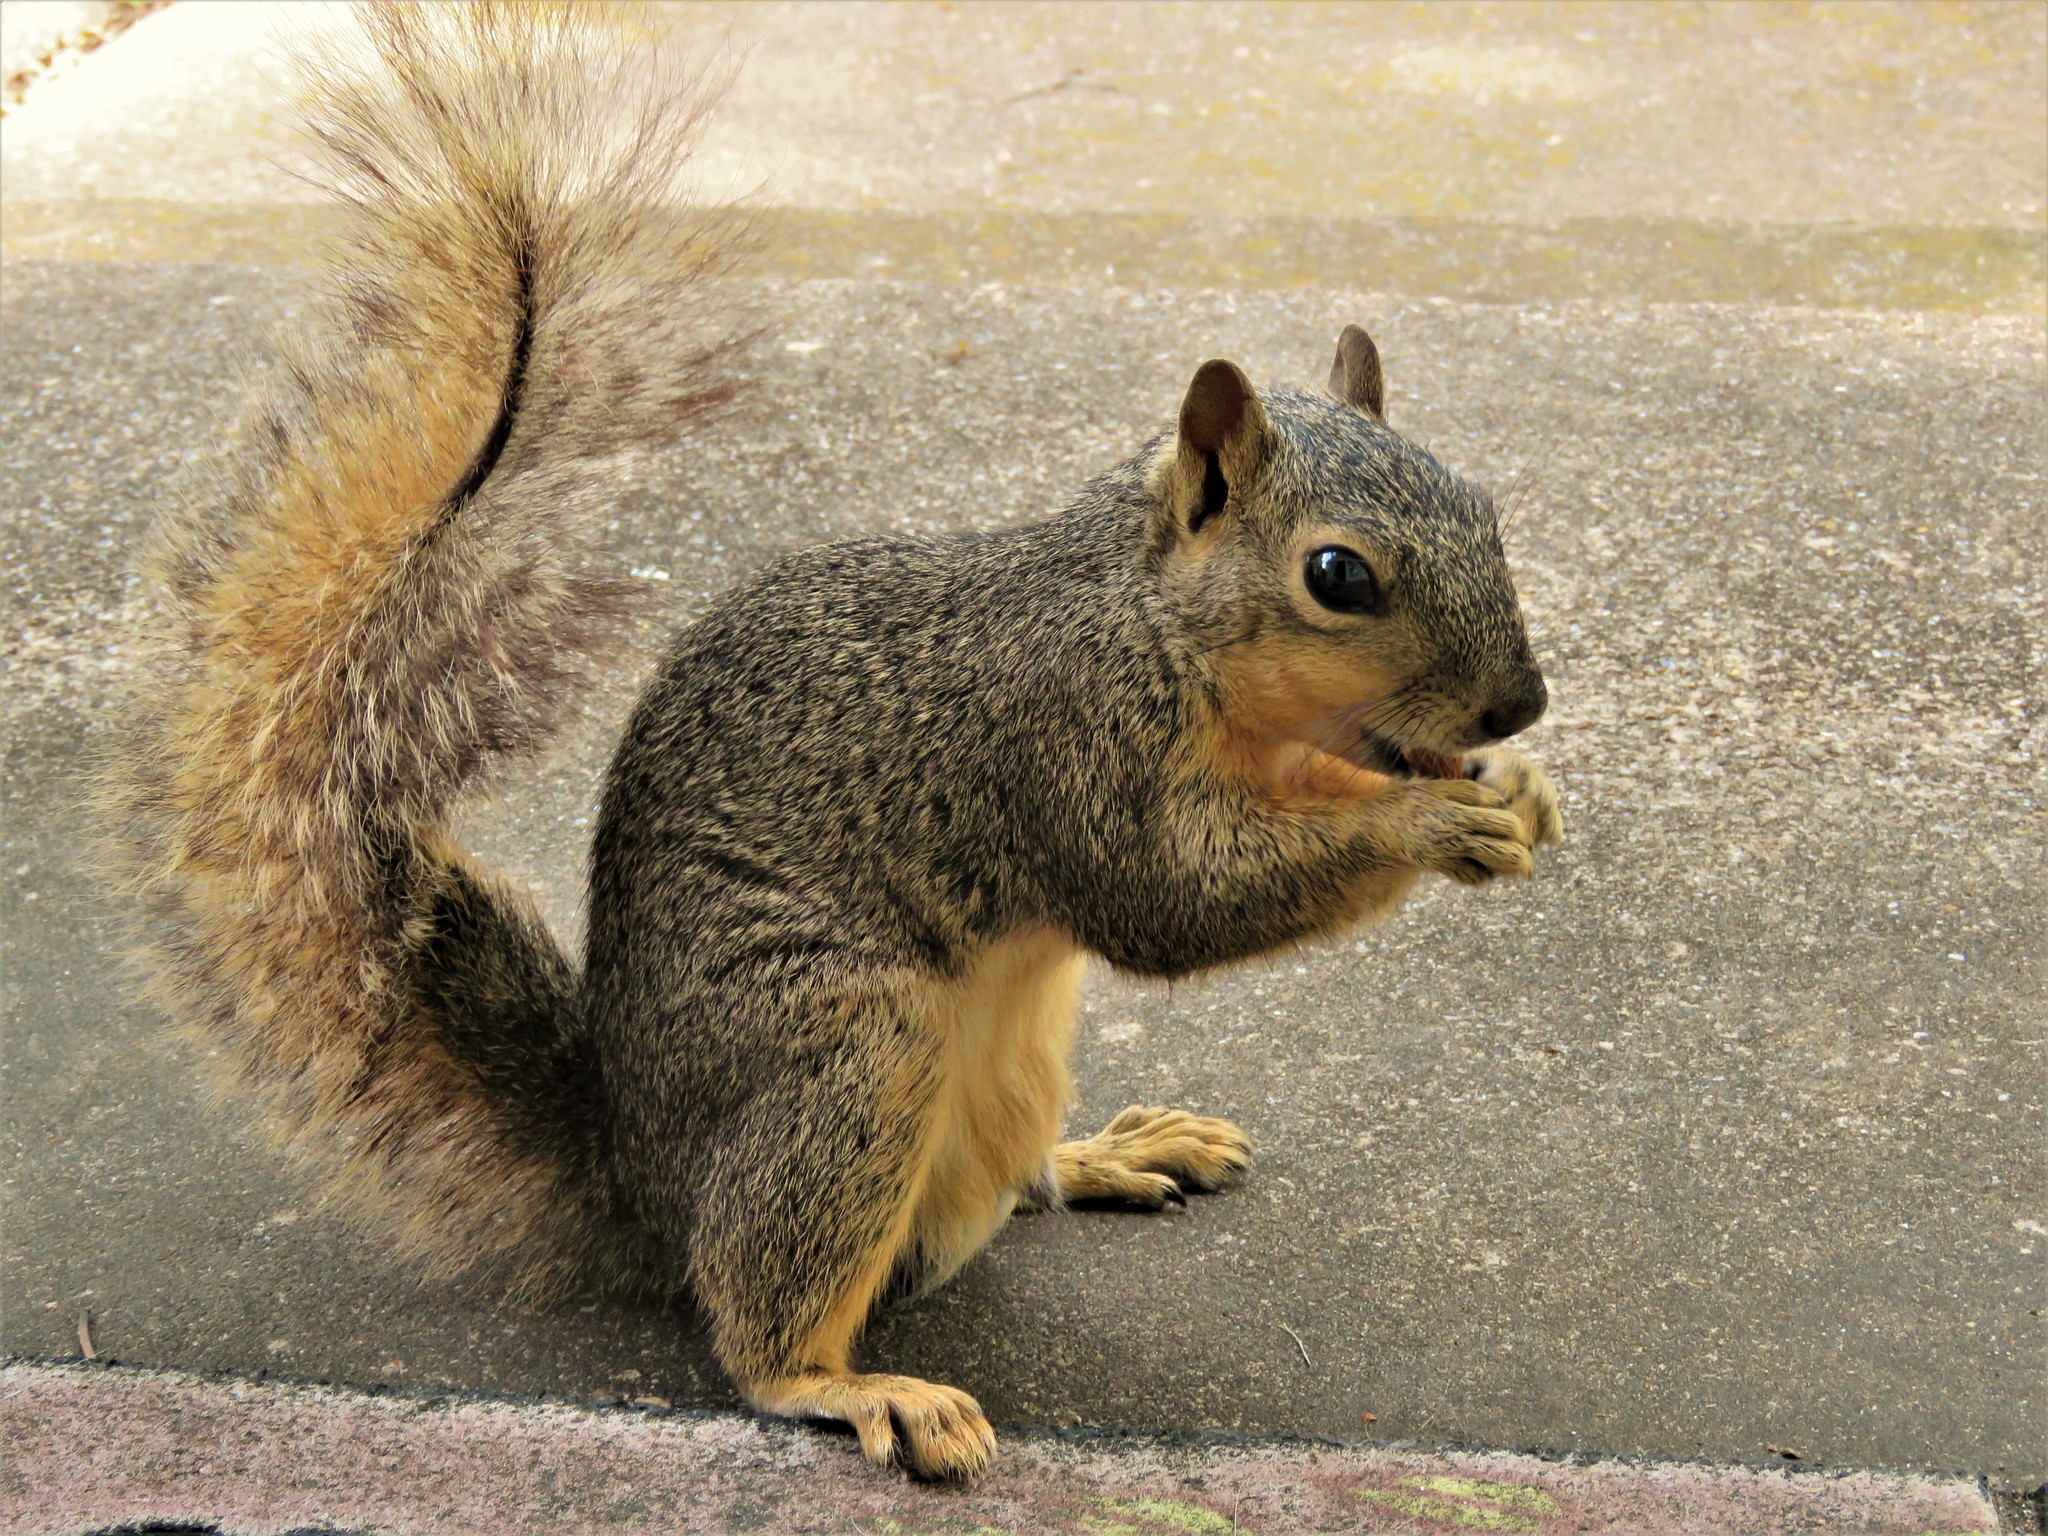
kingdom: Animalia
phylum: Chordata
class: Mammalia
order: Rodentia
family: Sciuridae
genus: Sciurus
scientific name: Sciurus niger
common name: Fox squirrel
